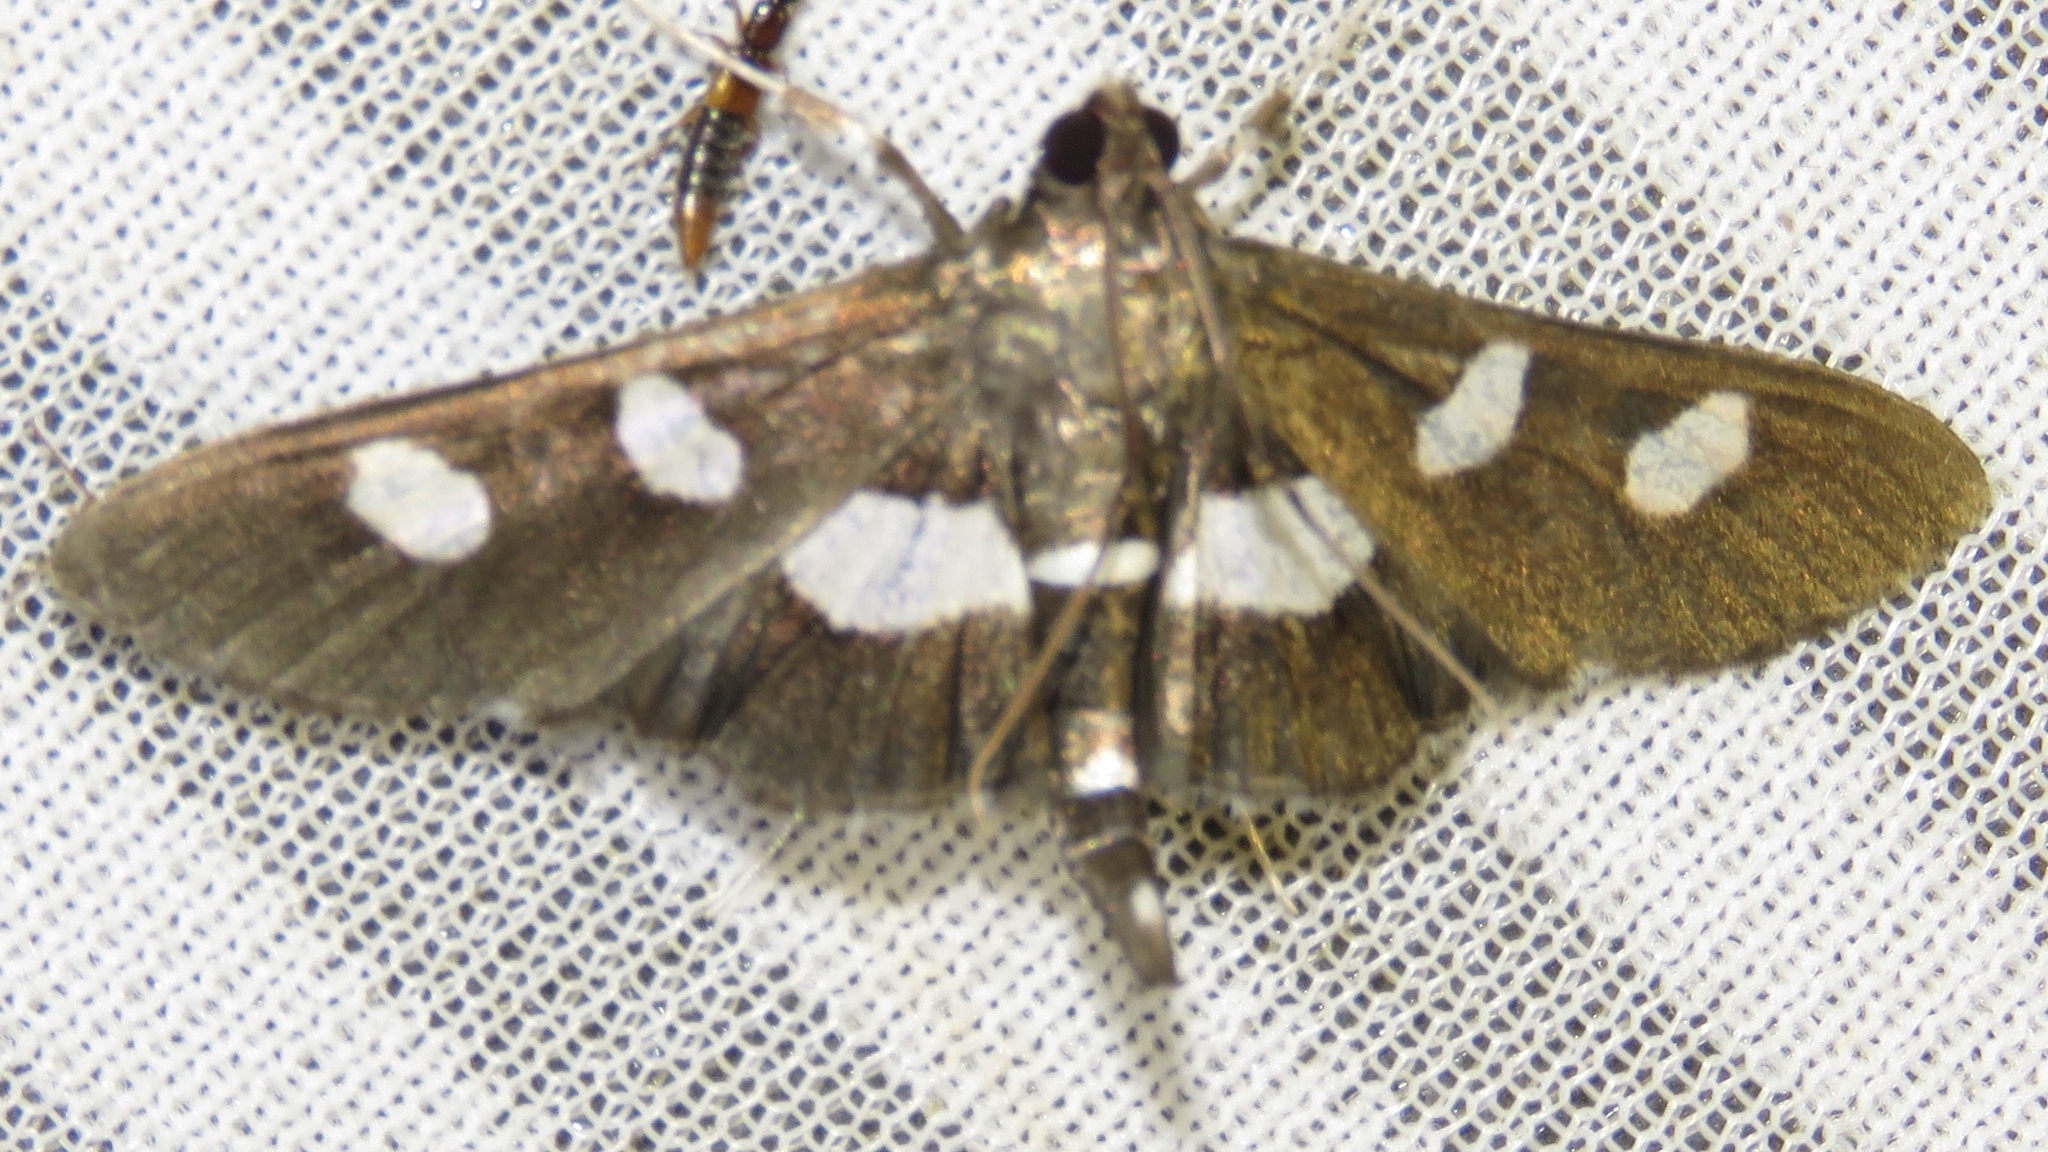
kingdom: Animalia
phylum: Arthropoda
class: Insecta
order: Lepidoptera
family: Crambidae
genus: Desmia
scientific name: Desmia
